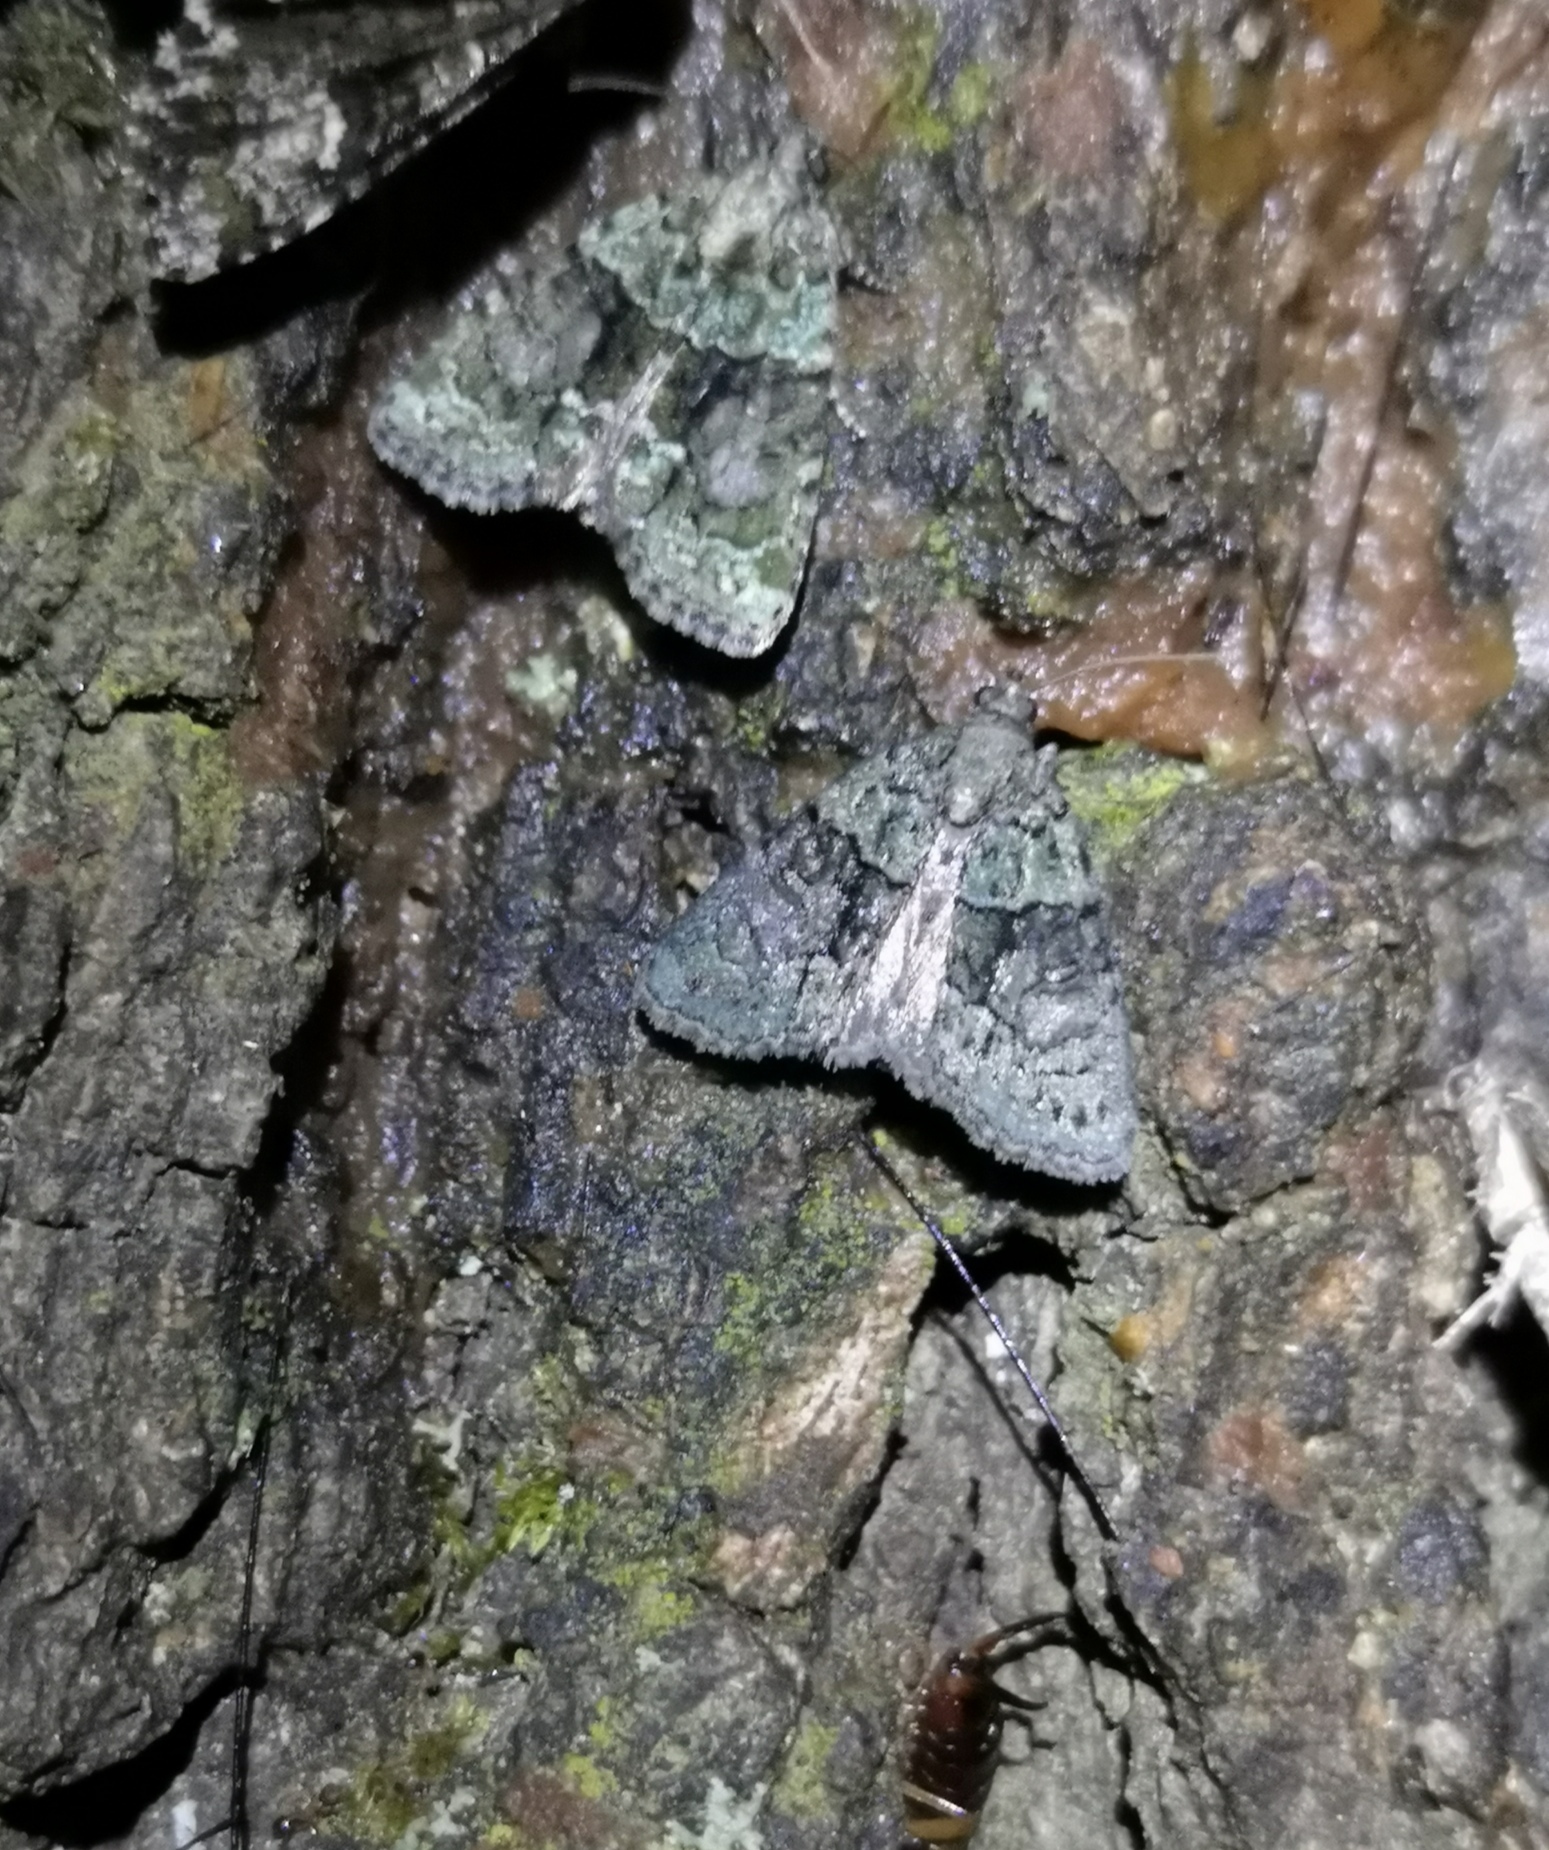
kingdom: Animalia
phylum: Arthropoda
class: Insecta
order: Lepidoptera
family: Noctuidae
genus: Cryphia
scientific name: Cryphia algae
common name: Tree-lichen beauty
